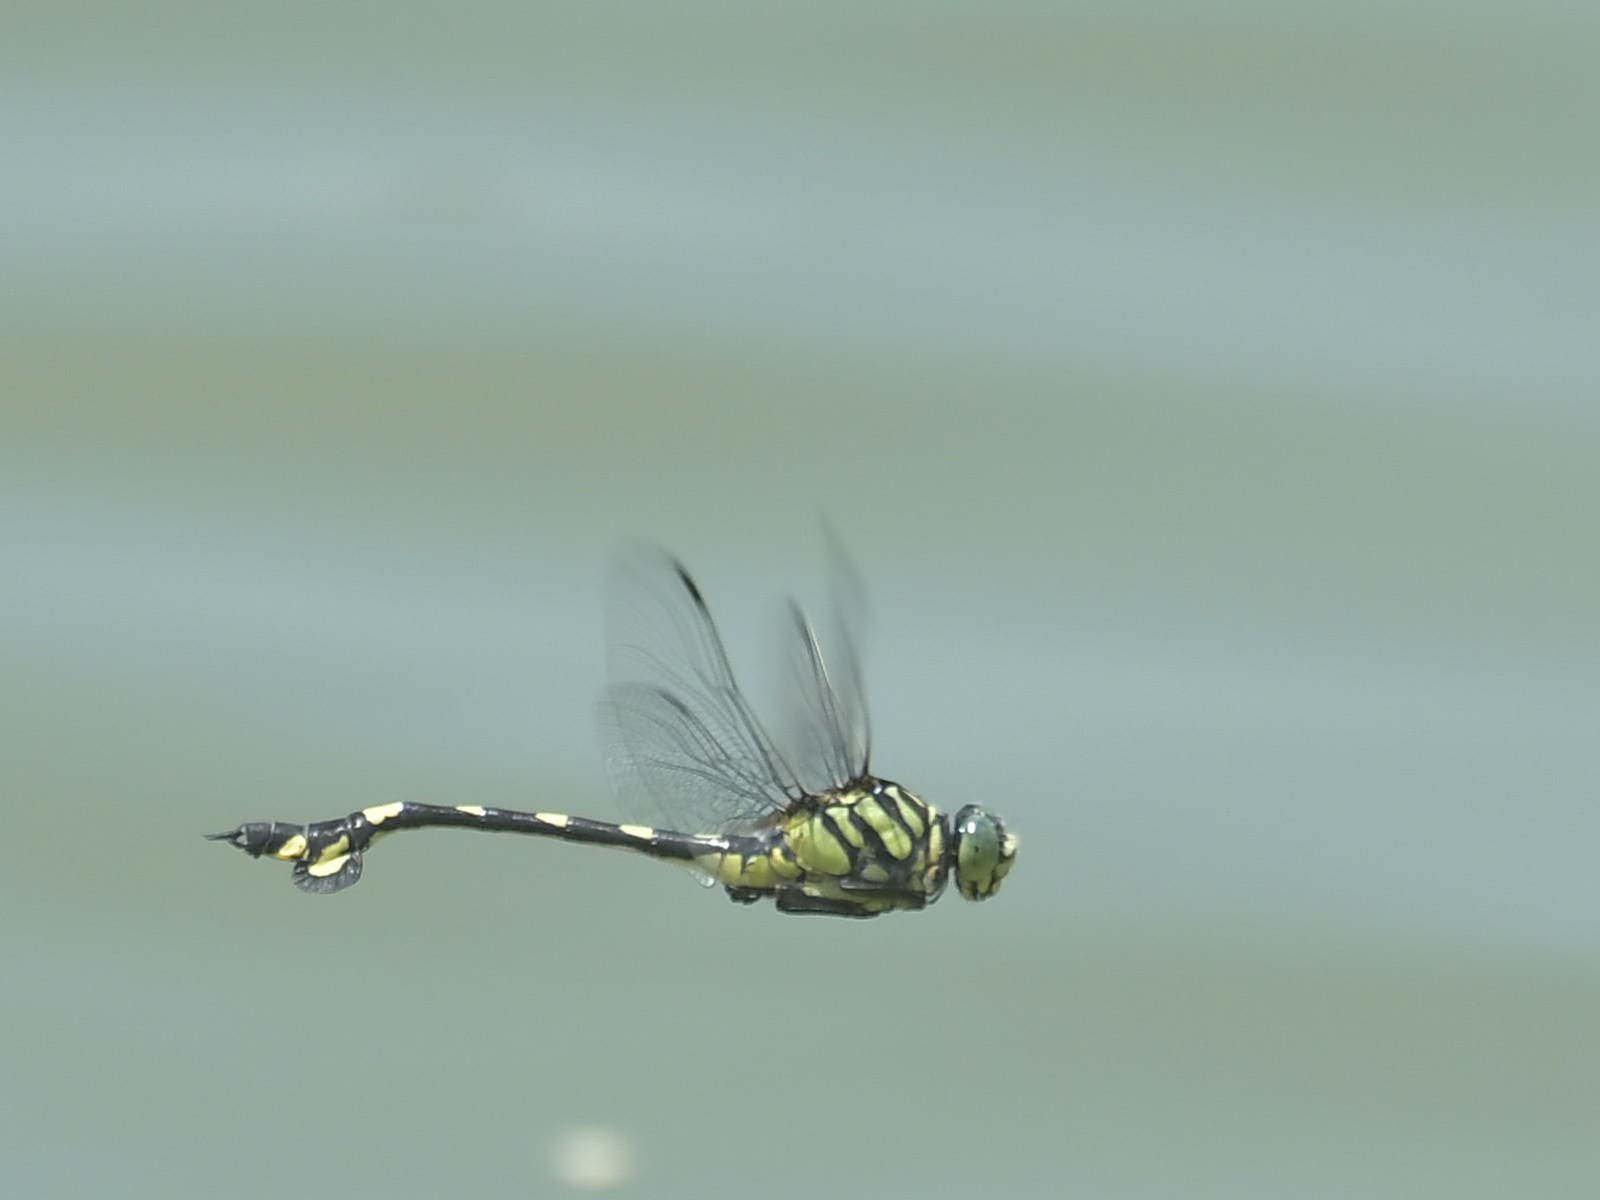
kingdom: Animalia
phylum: Arthropoda
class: Insecta
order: Odonata
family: Gomphidae
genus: Sinictinogomphus
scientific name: Sinictinogomphus clavatus
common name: Golden flangetail
